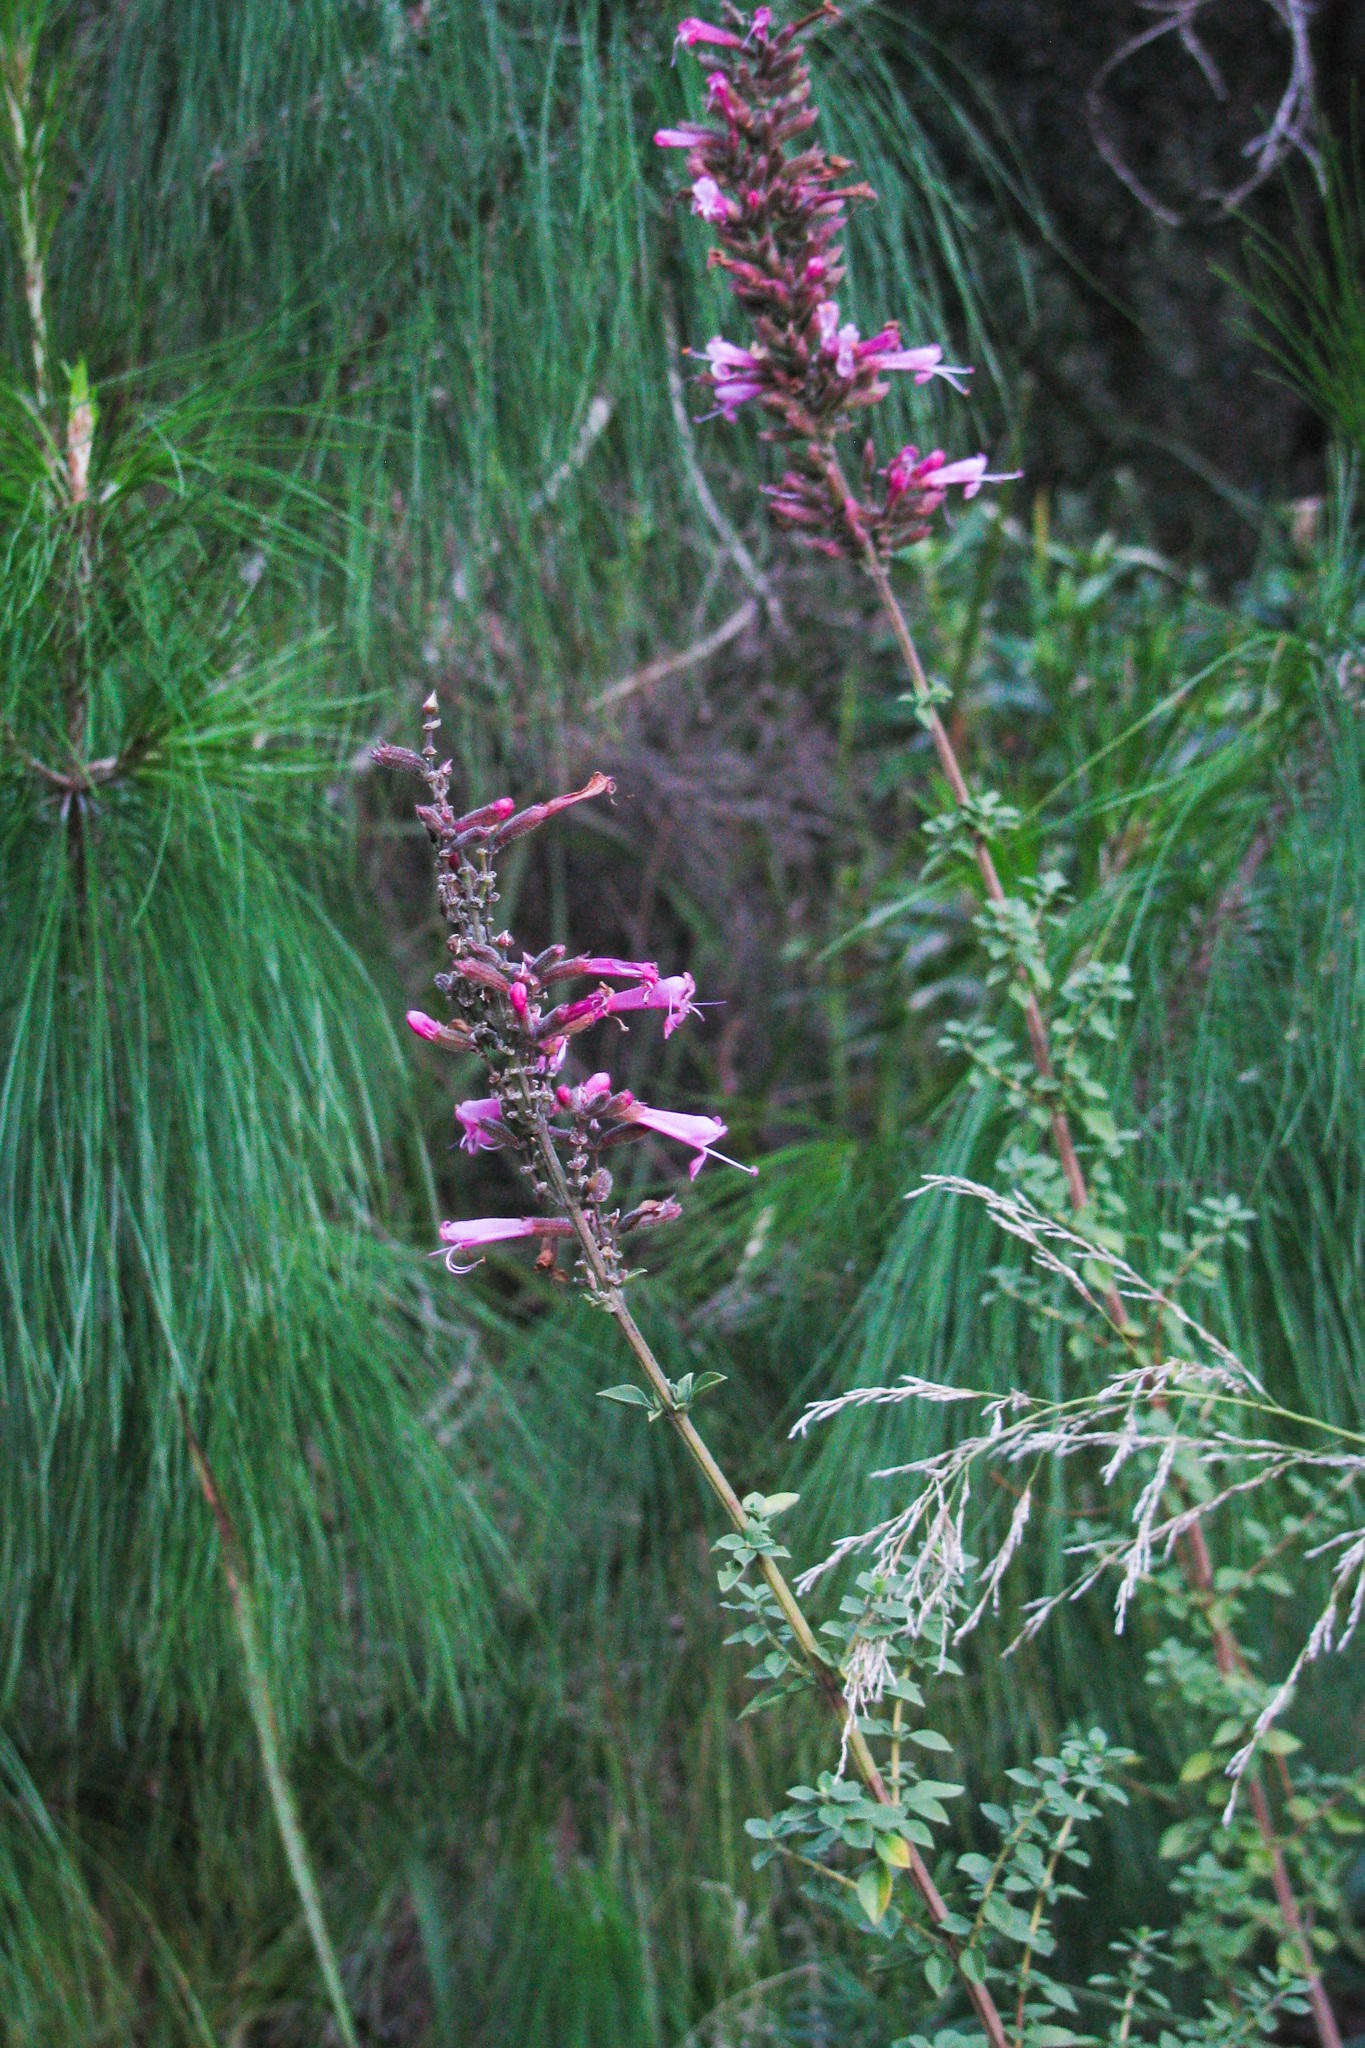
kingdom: Plantae
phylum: Tracheophyta
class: Magnoliopsida
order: Lamiales
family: Lamiaceae
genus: Syncolostemon
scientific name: Syncolostemon densiflorus
